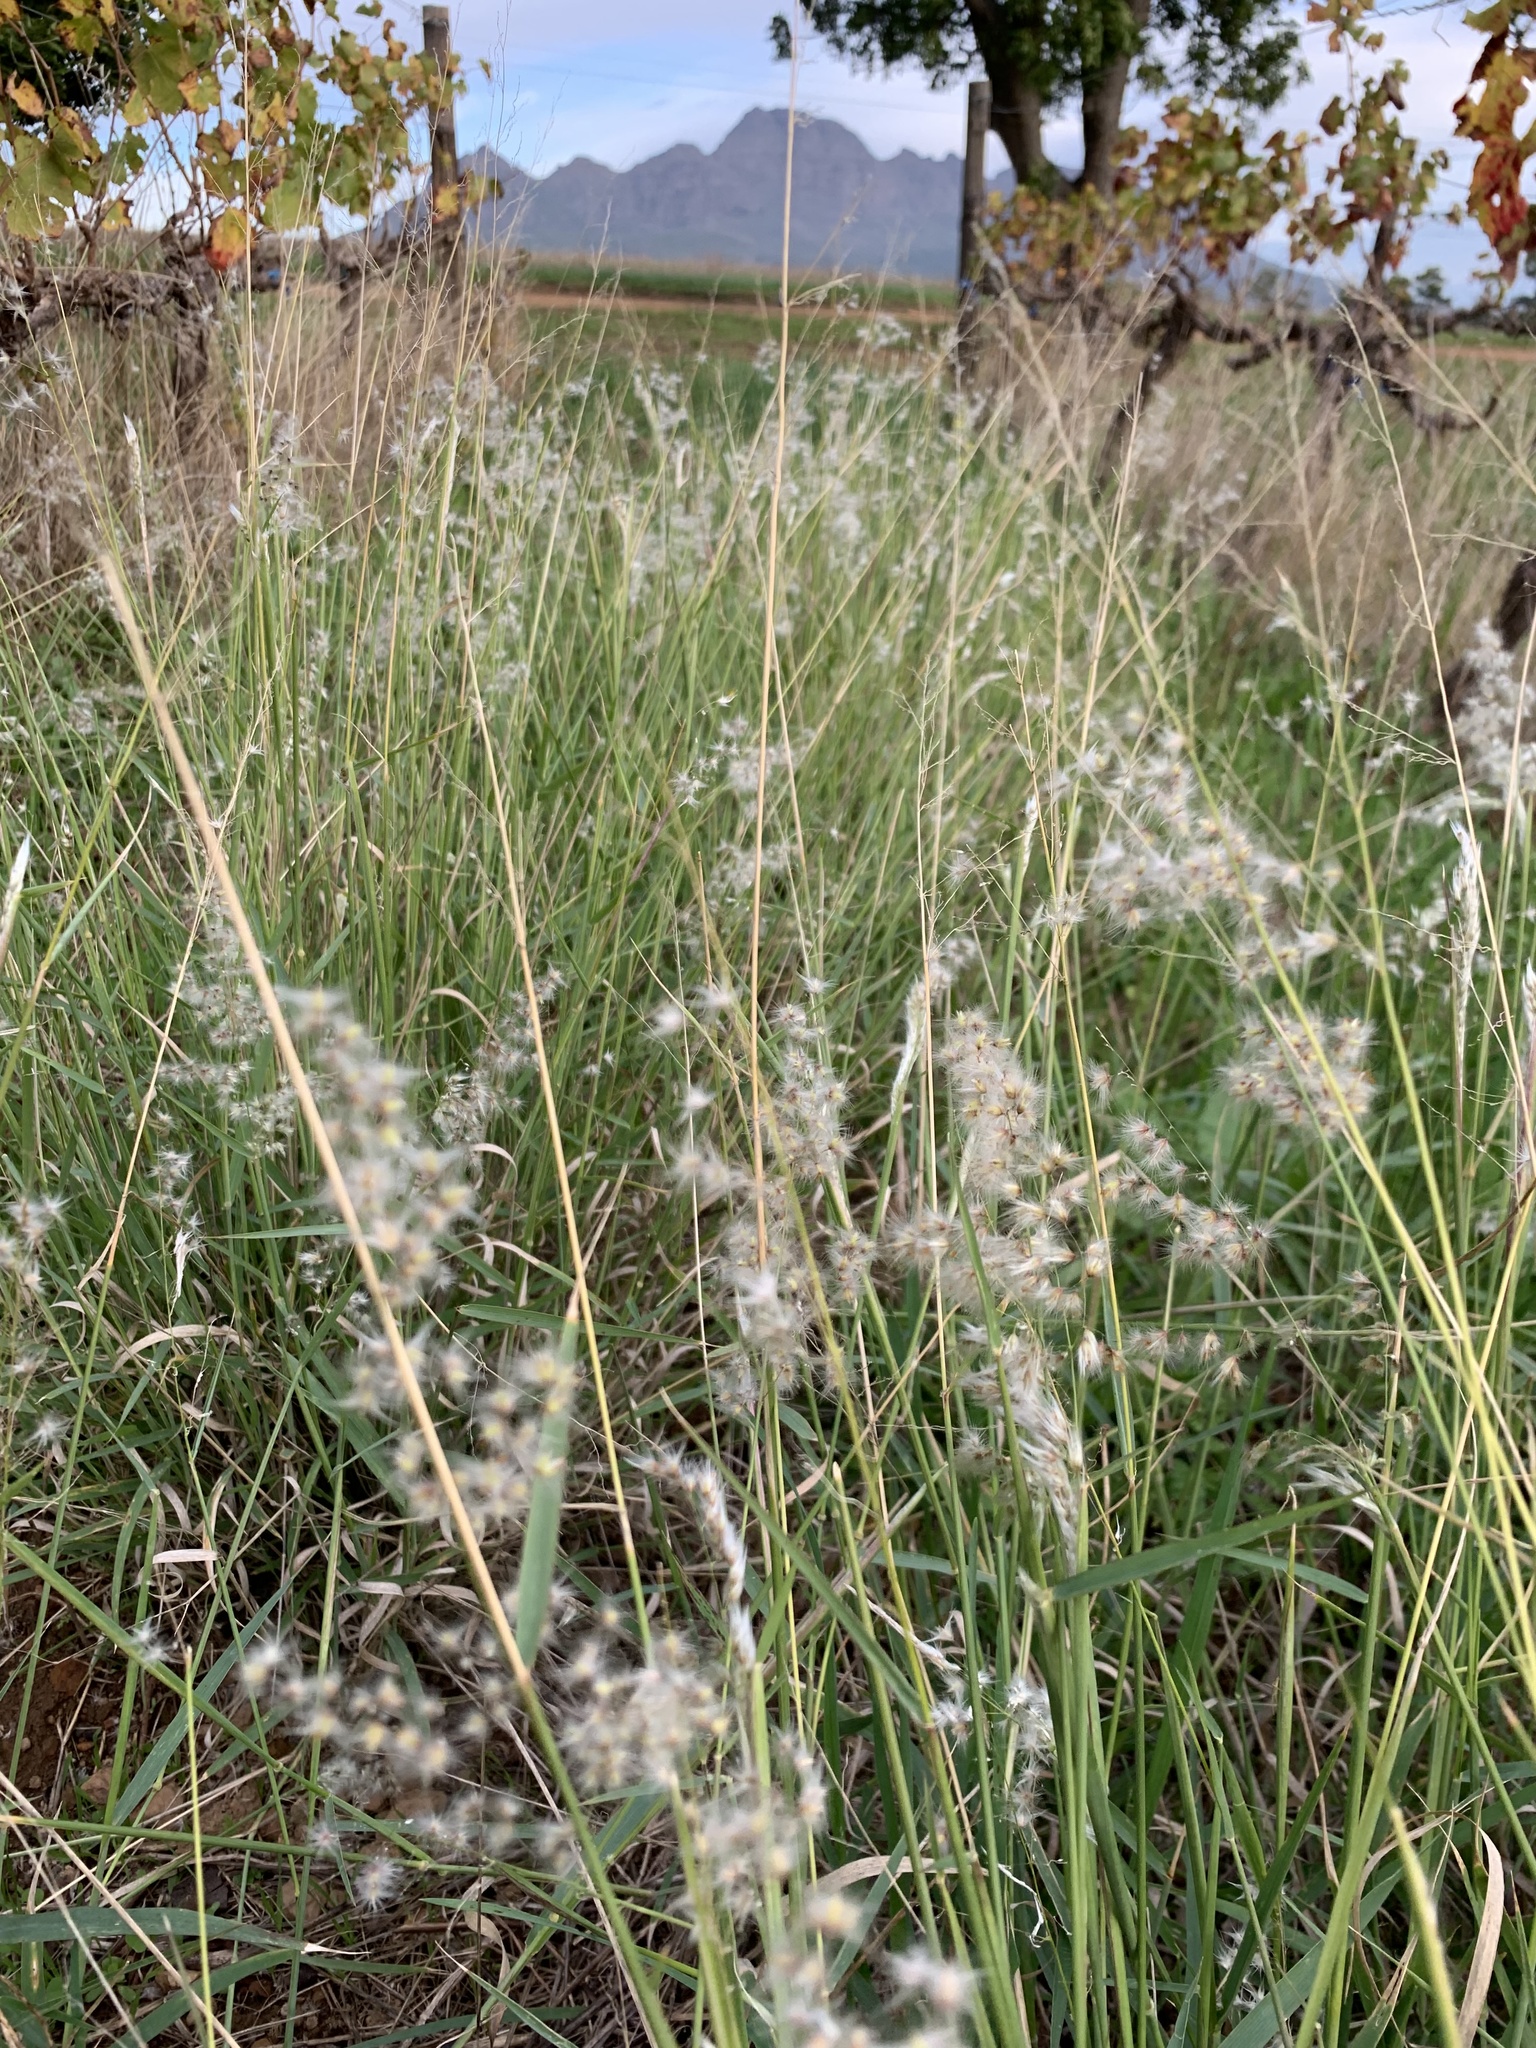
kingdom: Plantae
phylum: Tracheophyta
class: Liliopsida
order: Poales
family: Poaceae
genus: Melinis
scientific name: Melinis repens
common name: Rose natal grass
